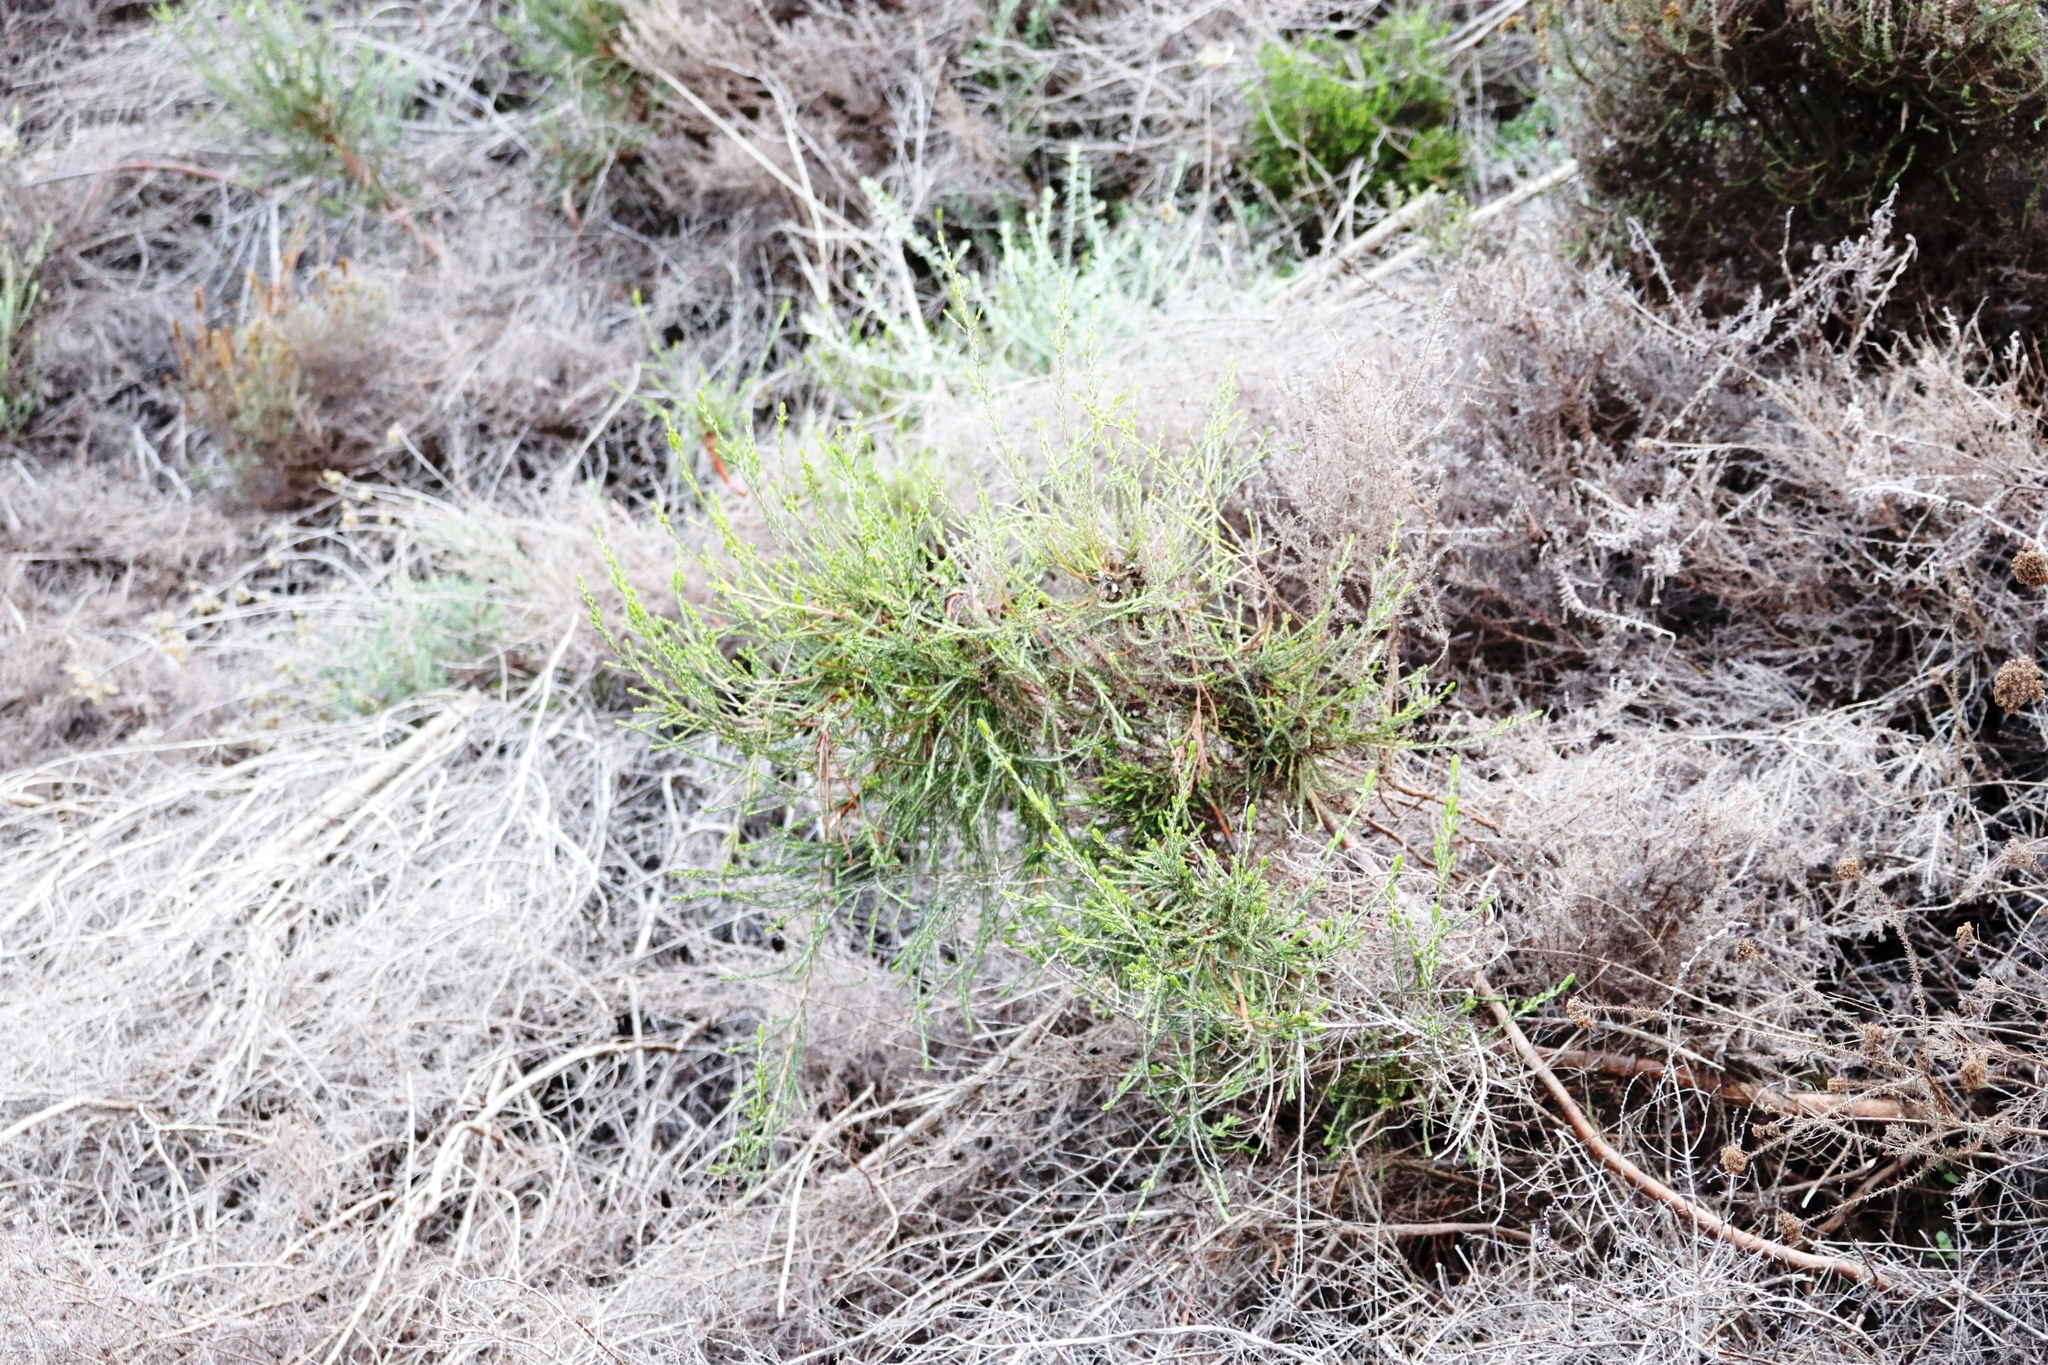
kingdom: Plantae
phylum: Tracheophyta
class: Magnoliopsida
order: Malvales
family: Thymelaeaceae
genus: Passerina
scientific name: Passerina corymbosa
